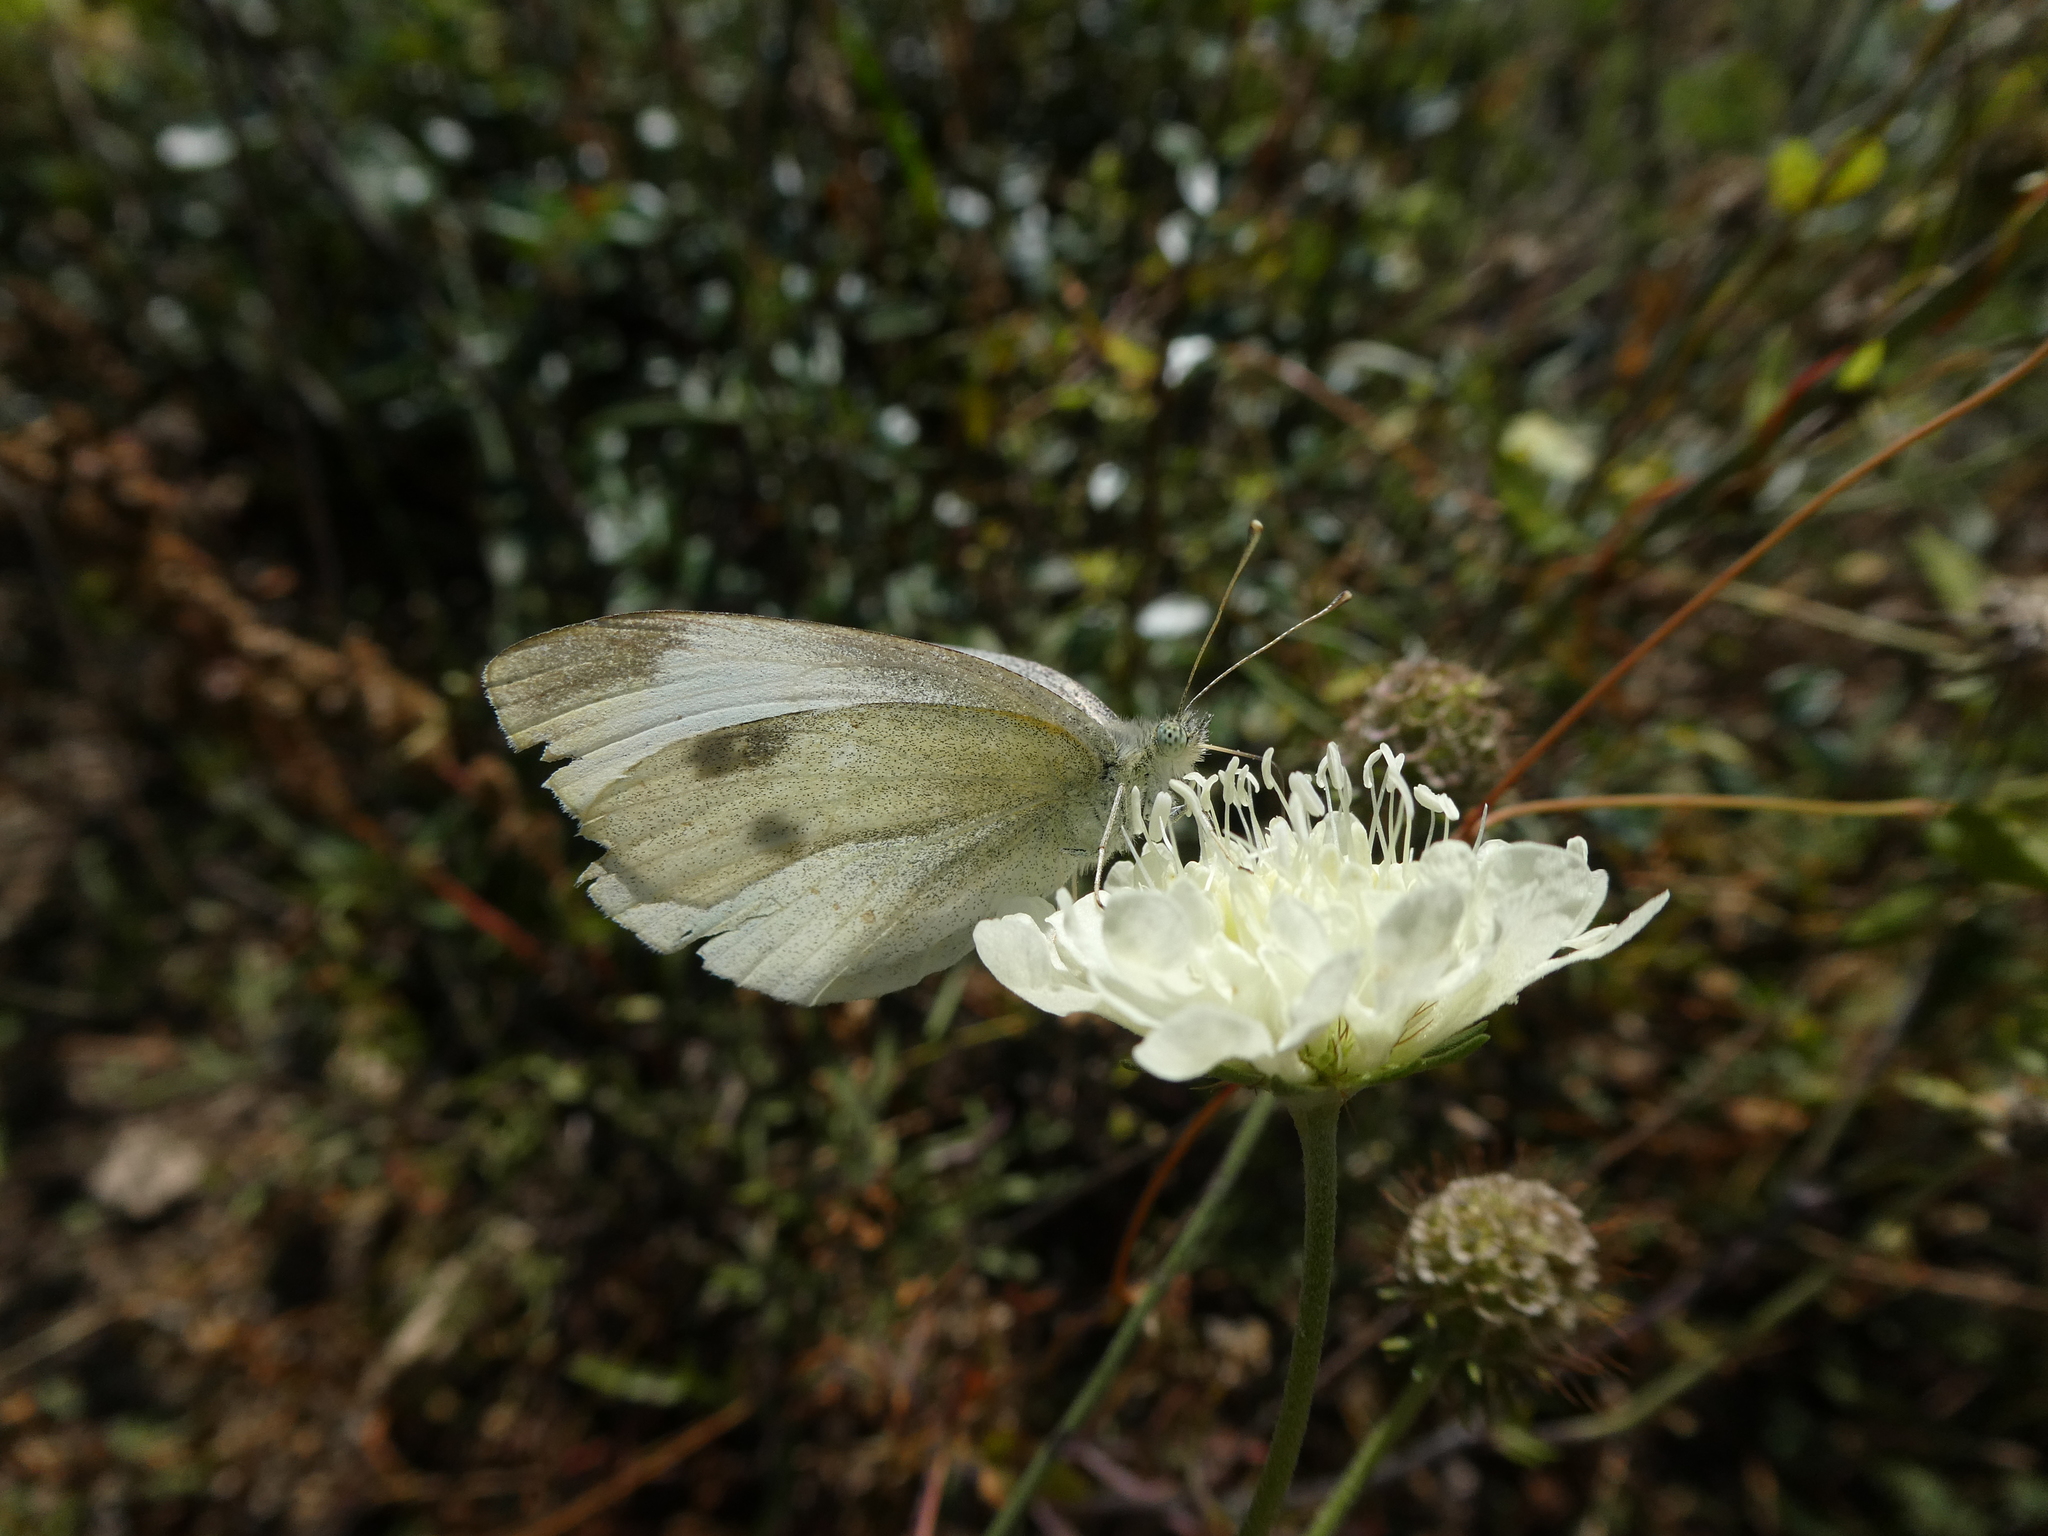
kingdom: Animalia
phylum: Arthropoda
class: Insecta
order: Lepidoptera
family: Pieridae
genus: Pieris
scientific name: Pieris rapae
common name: Small white
